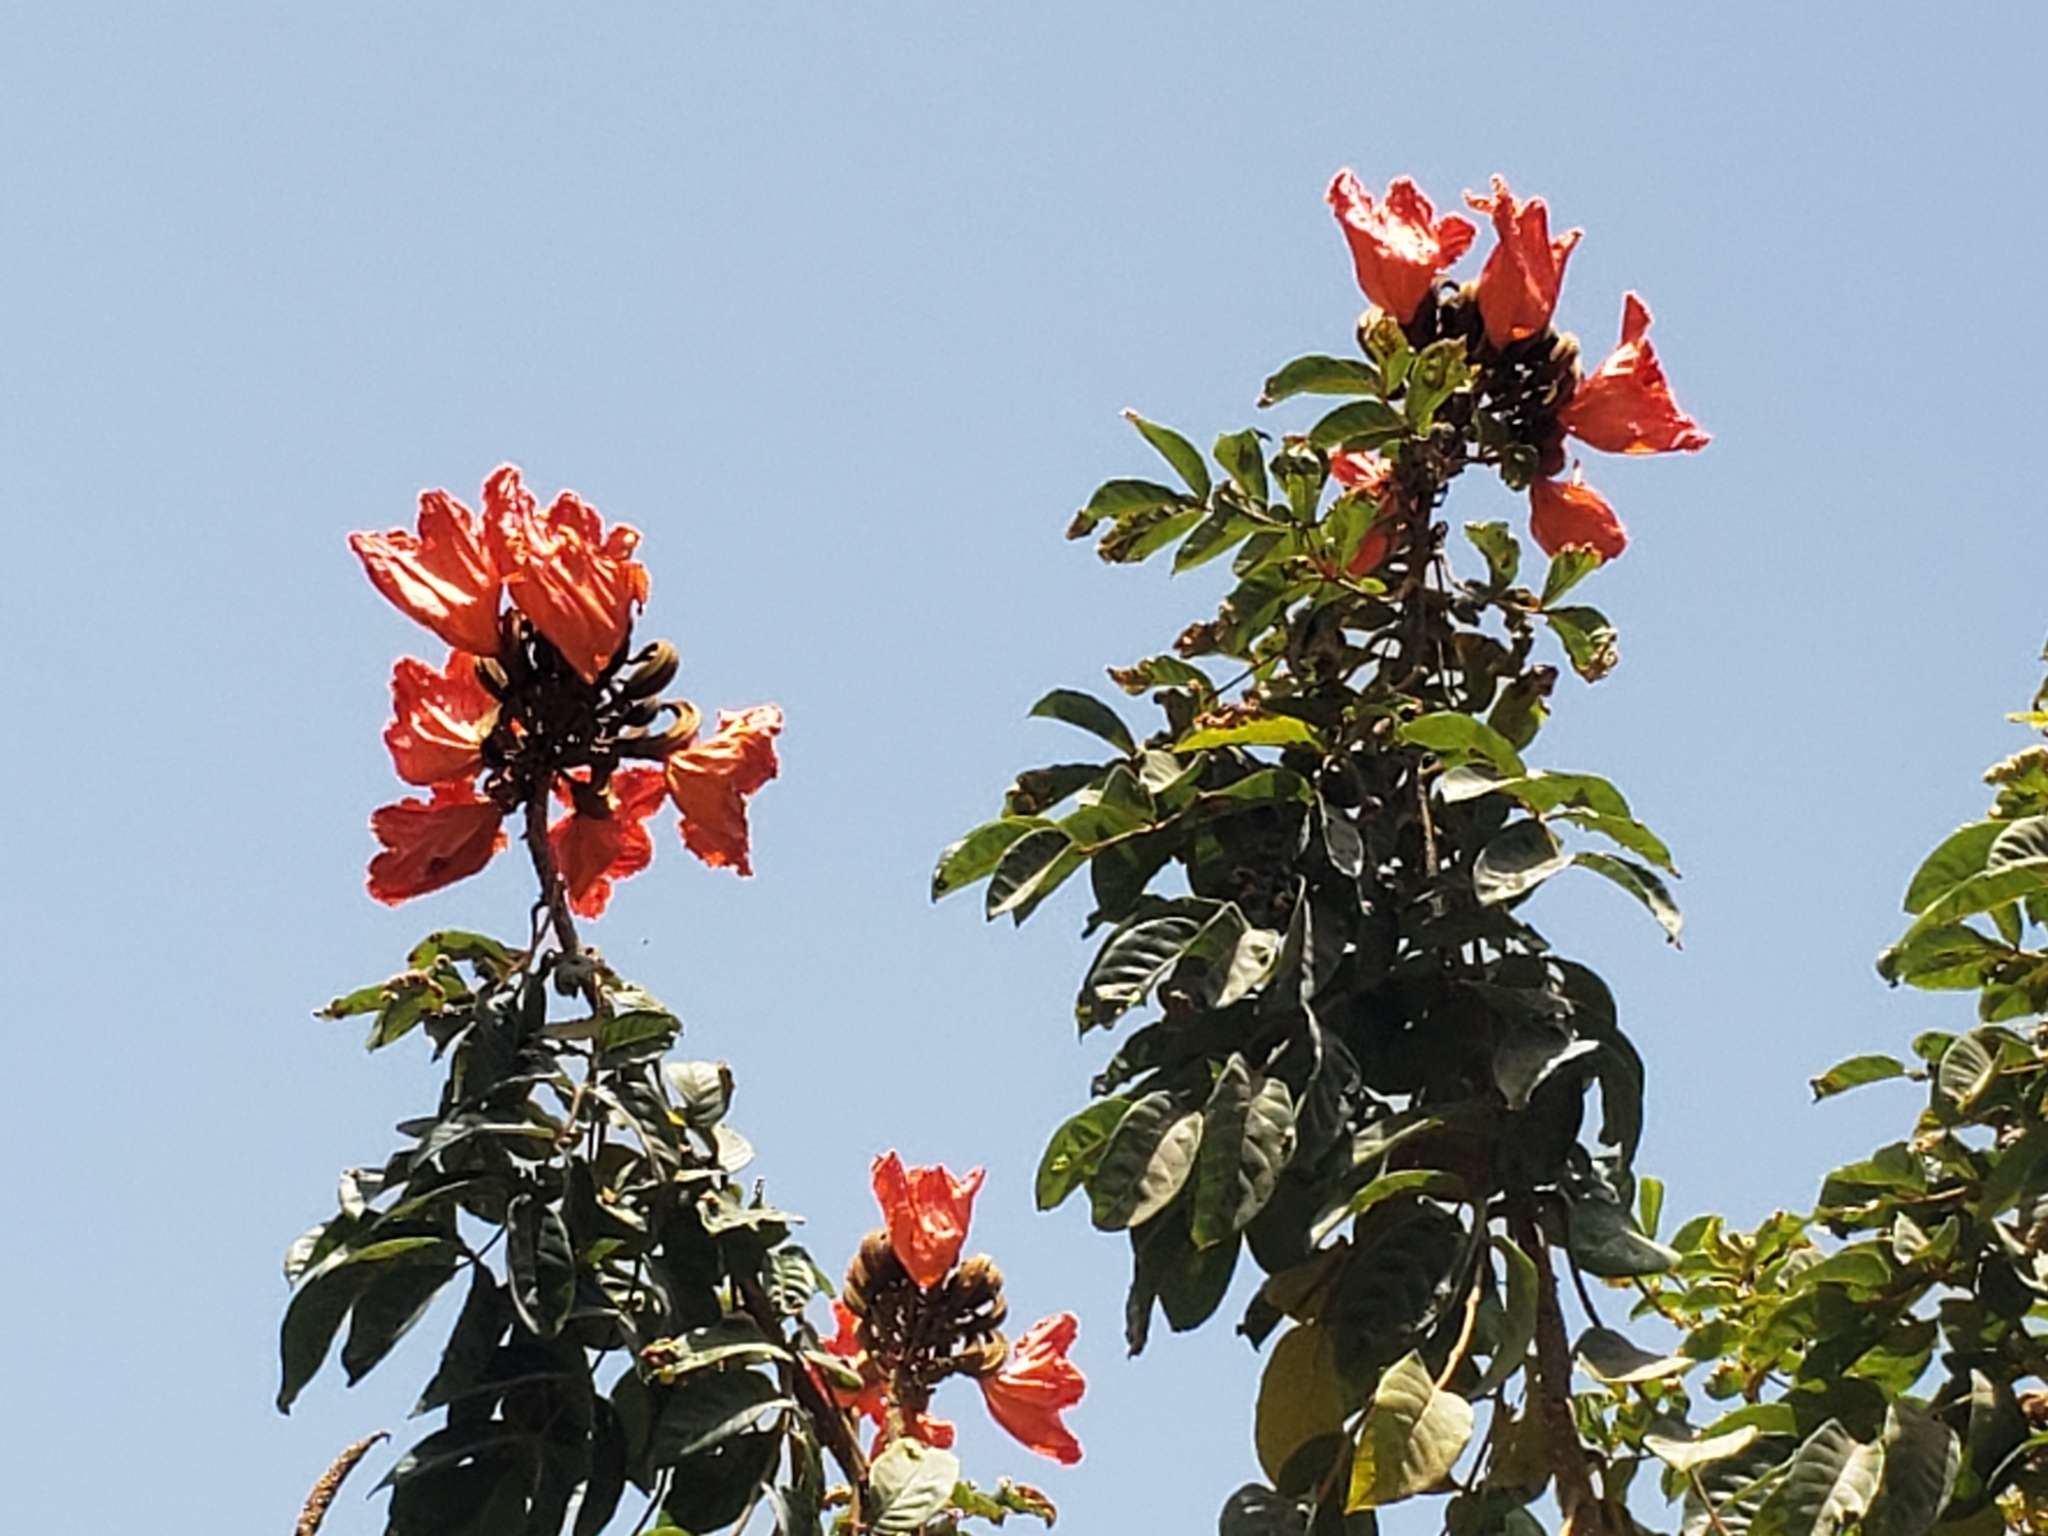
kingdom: Plantae
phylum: Tracheophyta
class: Magnoliopsida
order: Lamiales
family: Bignoniaceae
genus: Spathodea
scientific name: Spathodea campanulata
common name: African tuliptree
